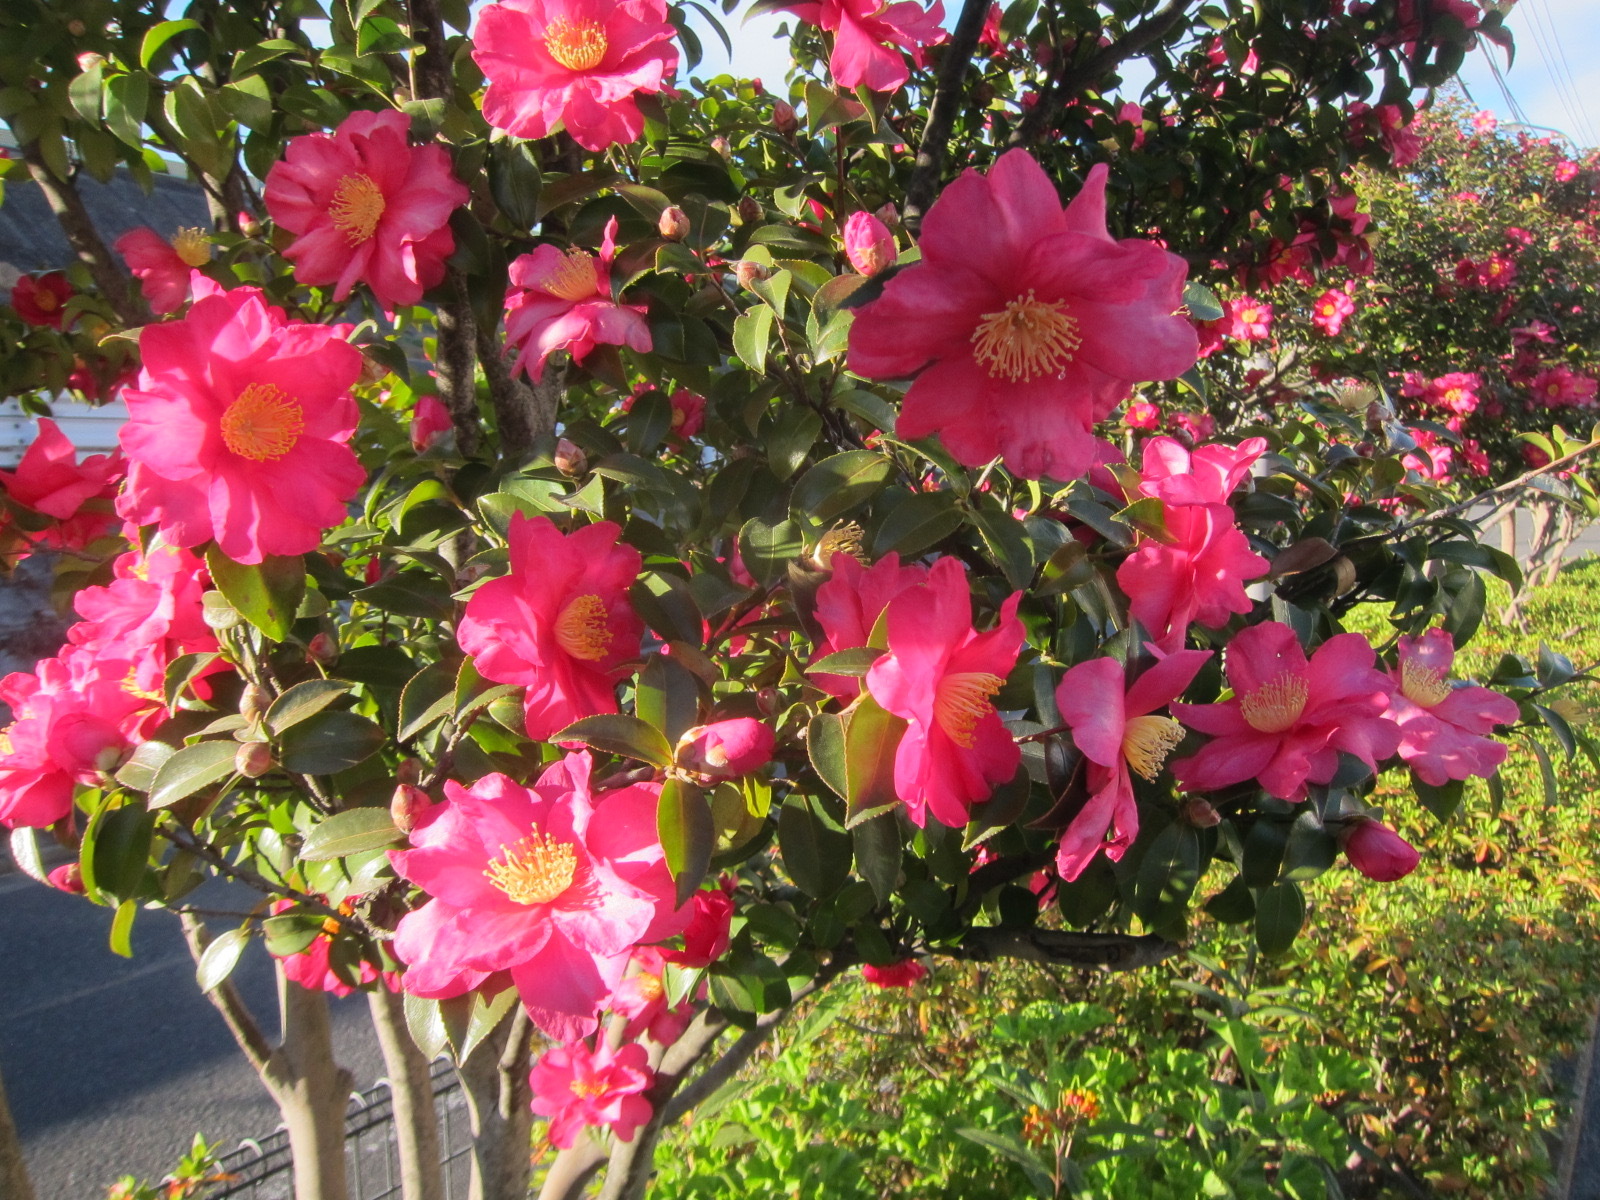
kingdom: Plantae
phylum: Tracheophyta
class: Magnoliopsida
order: Ericales
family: Theaceae
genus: Camellia
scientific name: Camellia sasanqua
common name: Sasanqua camellia
